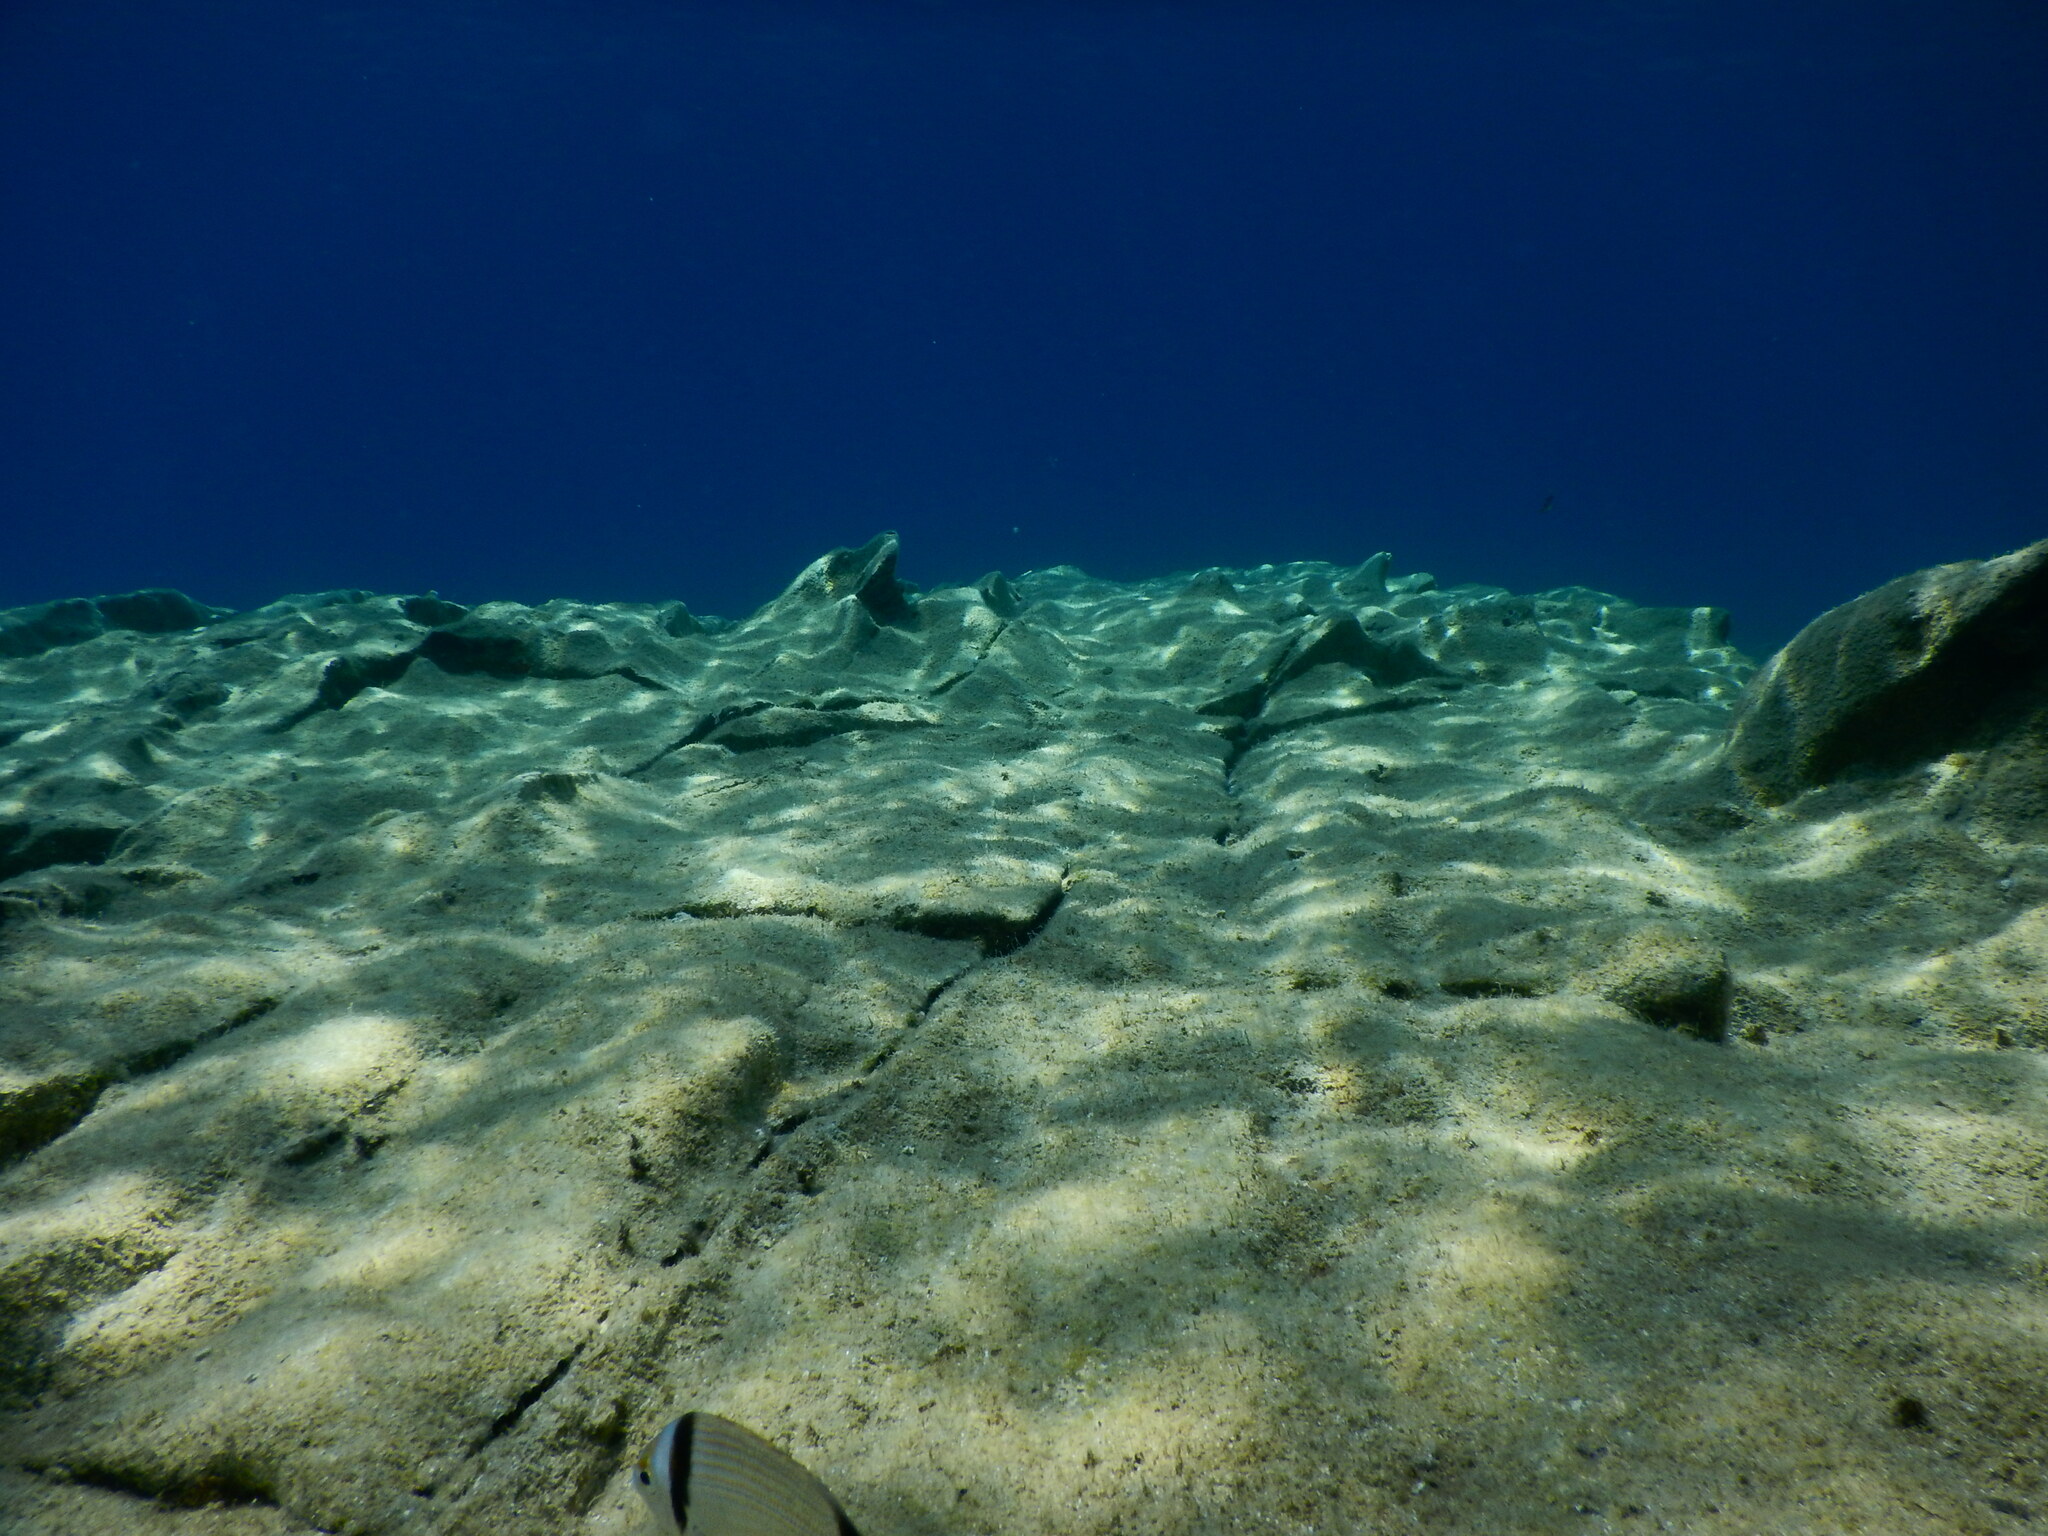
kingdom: Animalia
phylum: Chordata
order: Perciformes
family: Sparidae
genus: Diplodus
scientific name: Diplodus vulgaris
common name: Common two-banded seabream
